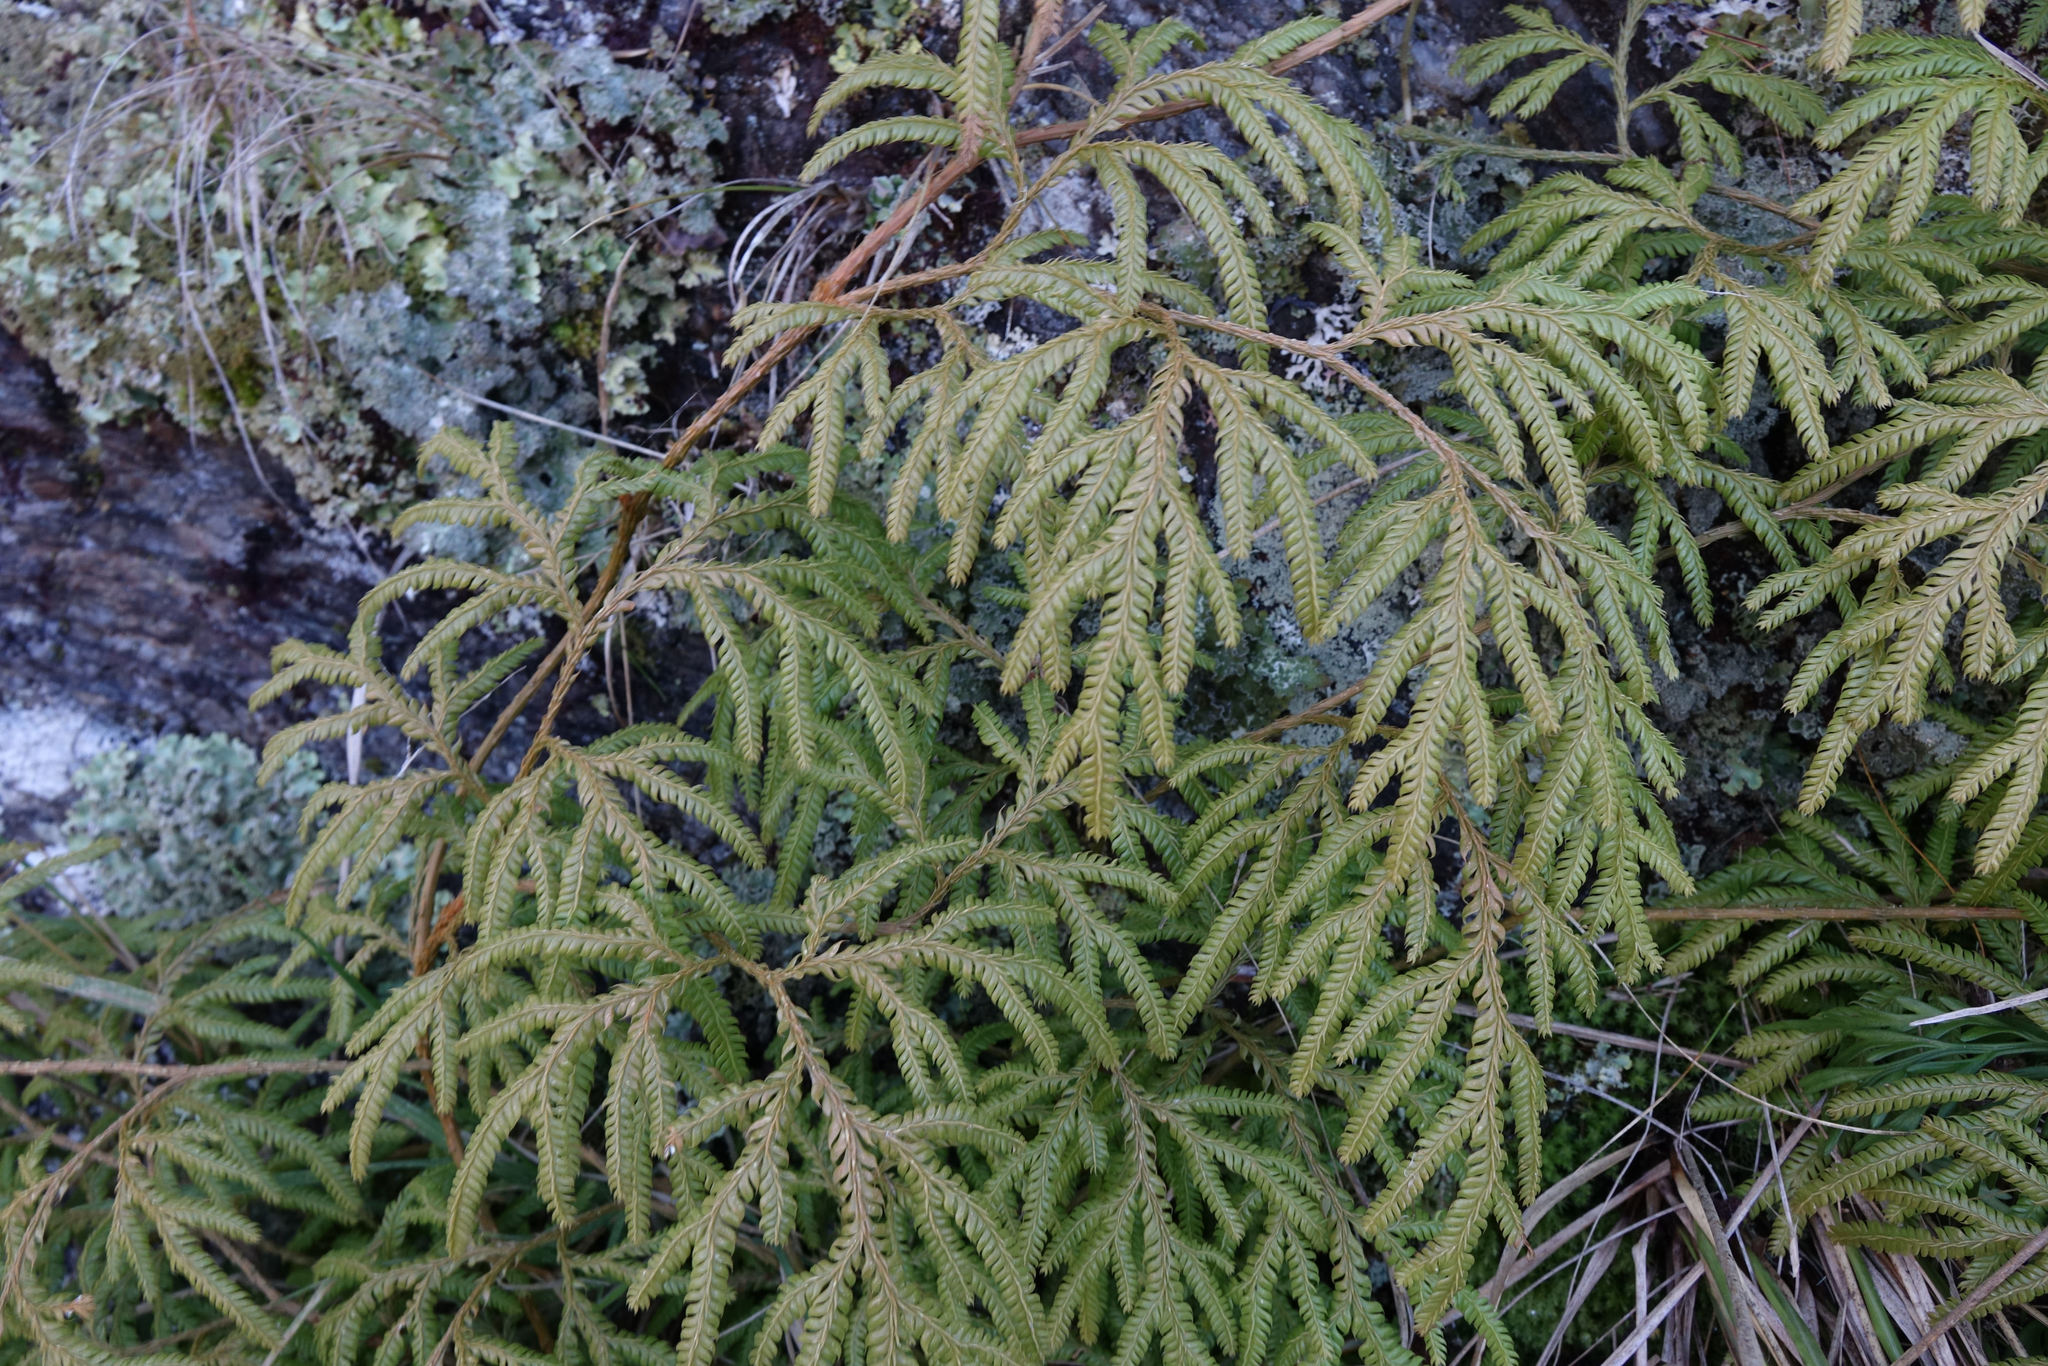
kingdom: Plantae
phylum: Tracheophyta
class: Lycopodiopsida
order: Lycopodiales
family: Lycopodiaceae
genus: Lycopodium
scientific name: Lycopodium volubile
